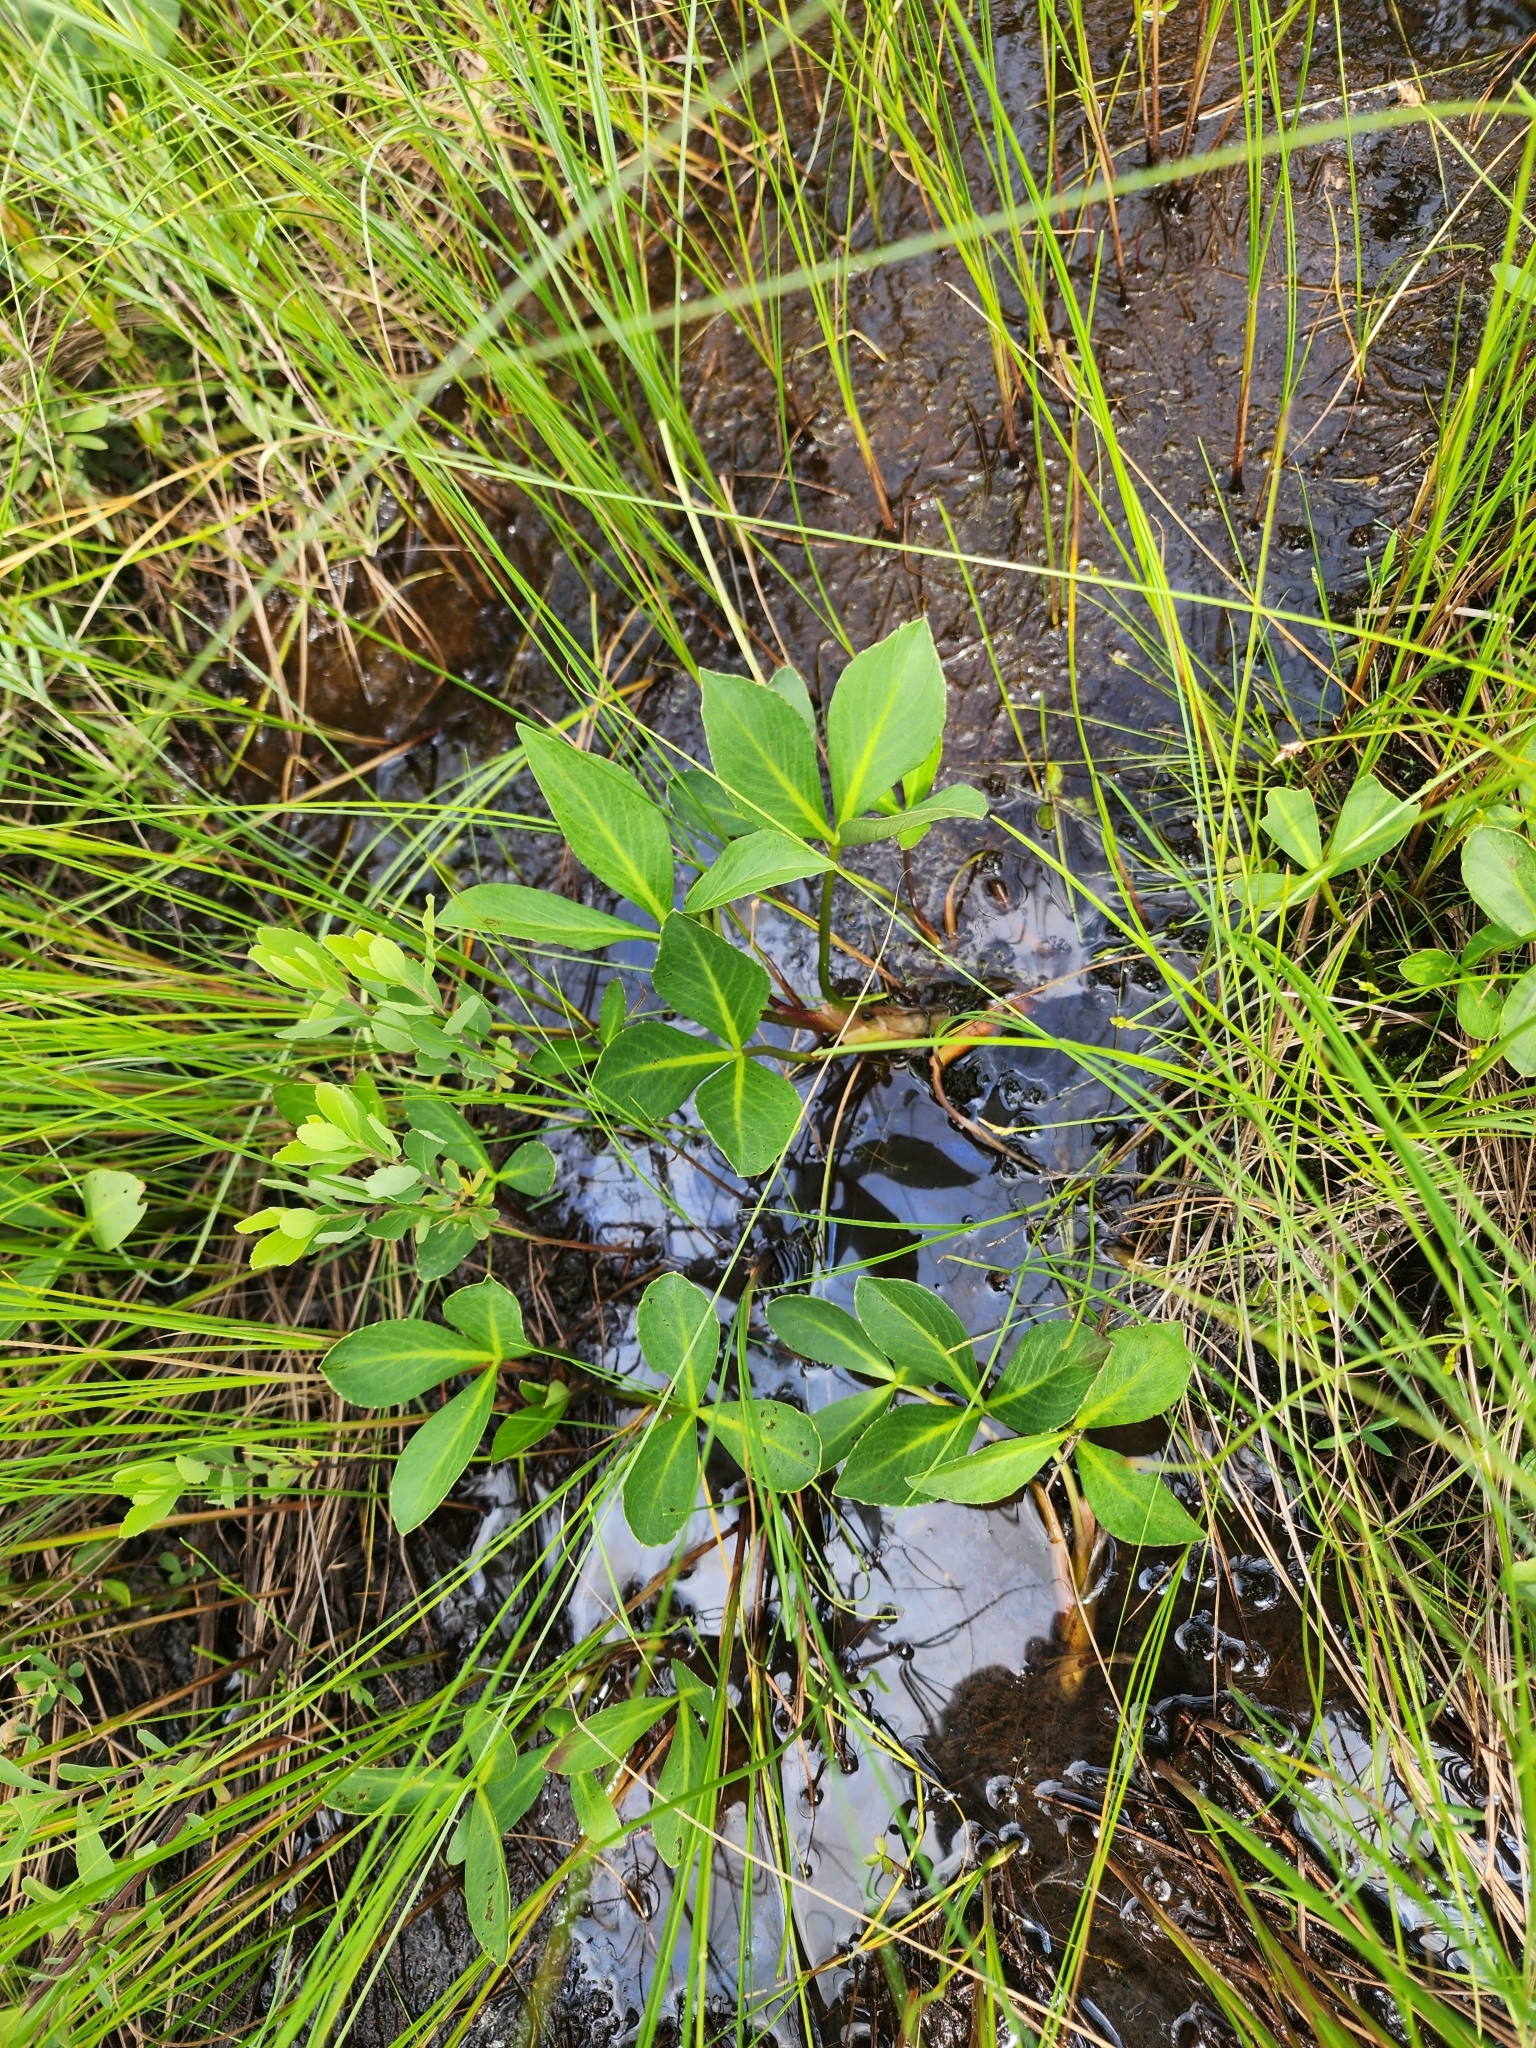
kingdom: Plantae
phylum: Tracheophyta
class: Magnoliopsida
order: Asterales
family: Menyanthaceae
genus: Menyanthes
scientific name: Menyanthes trifoliata
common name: Bogbean
